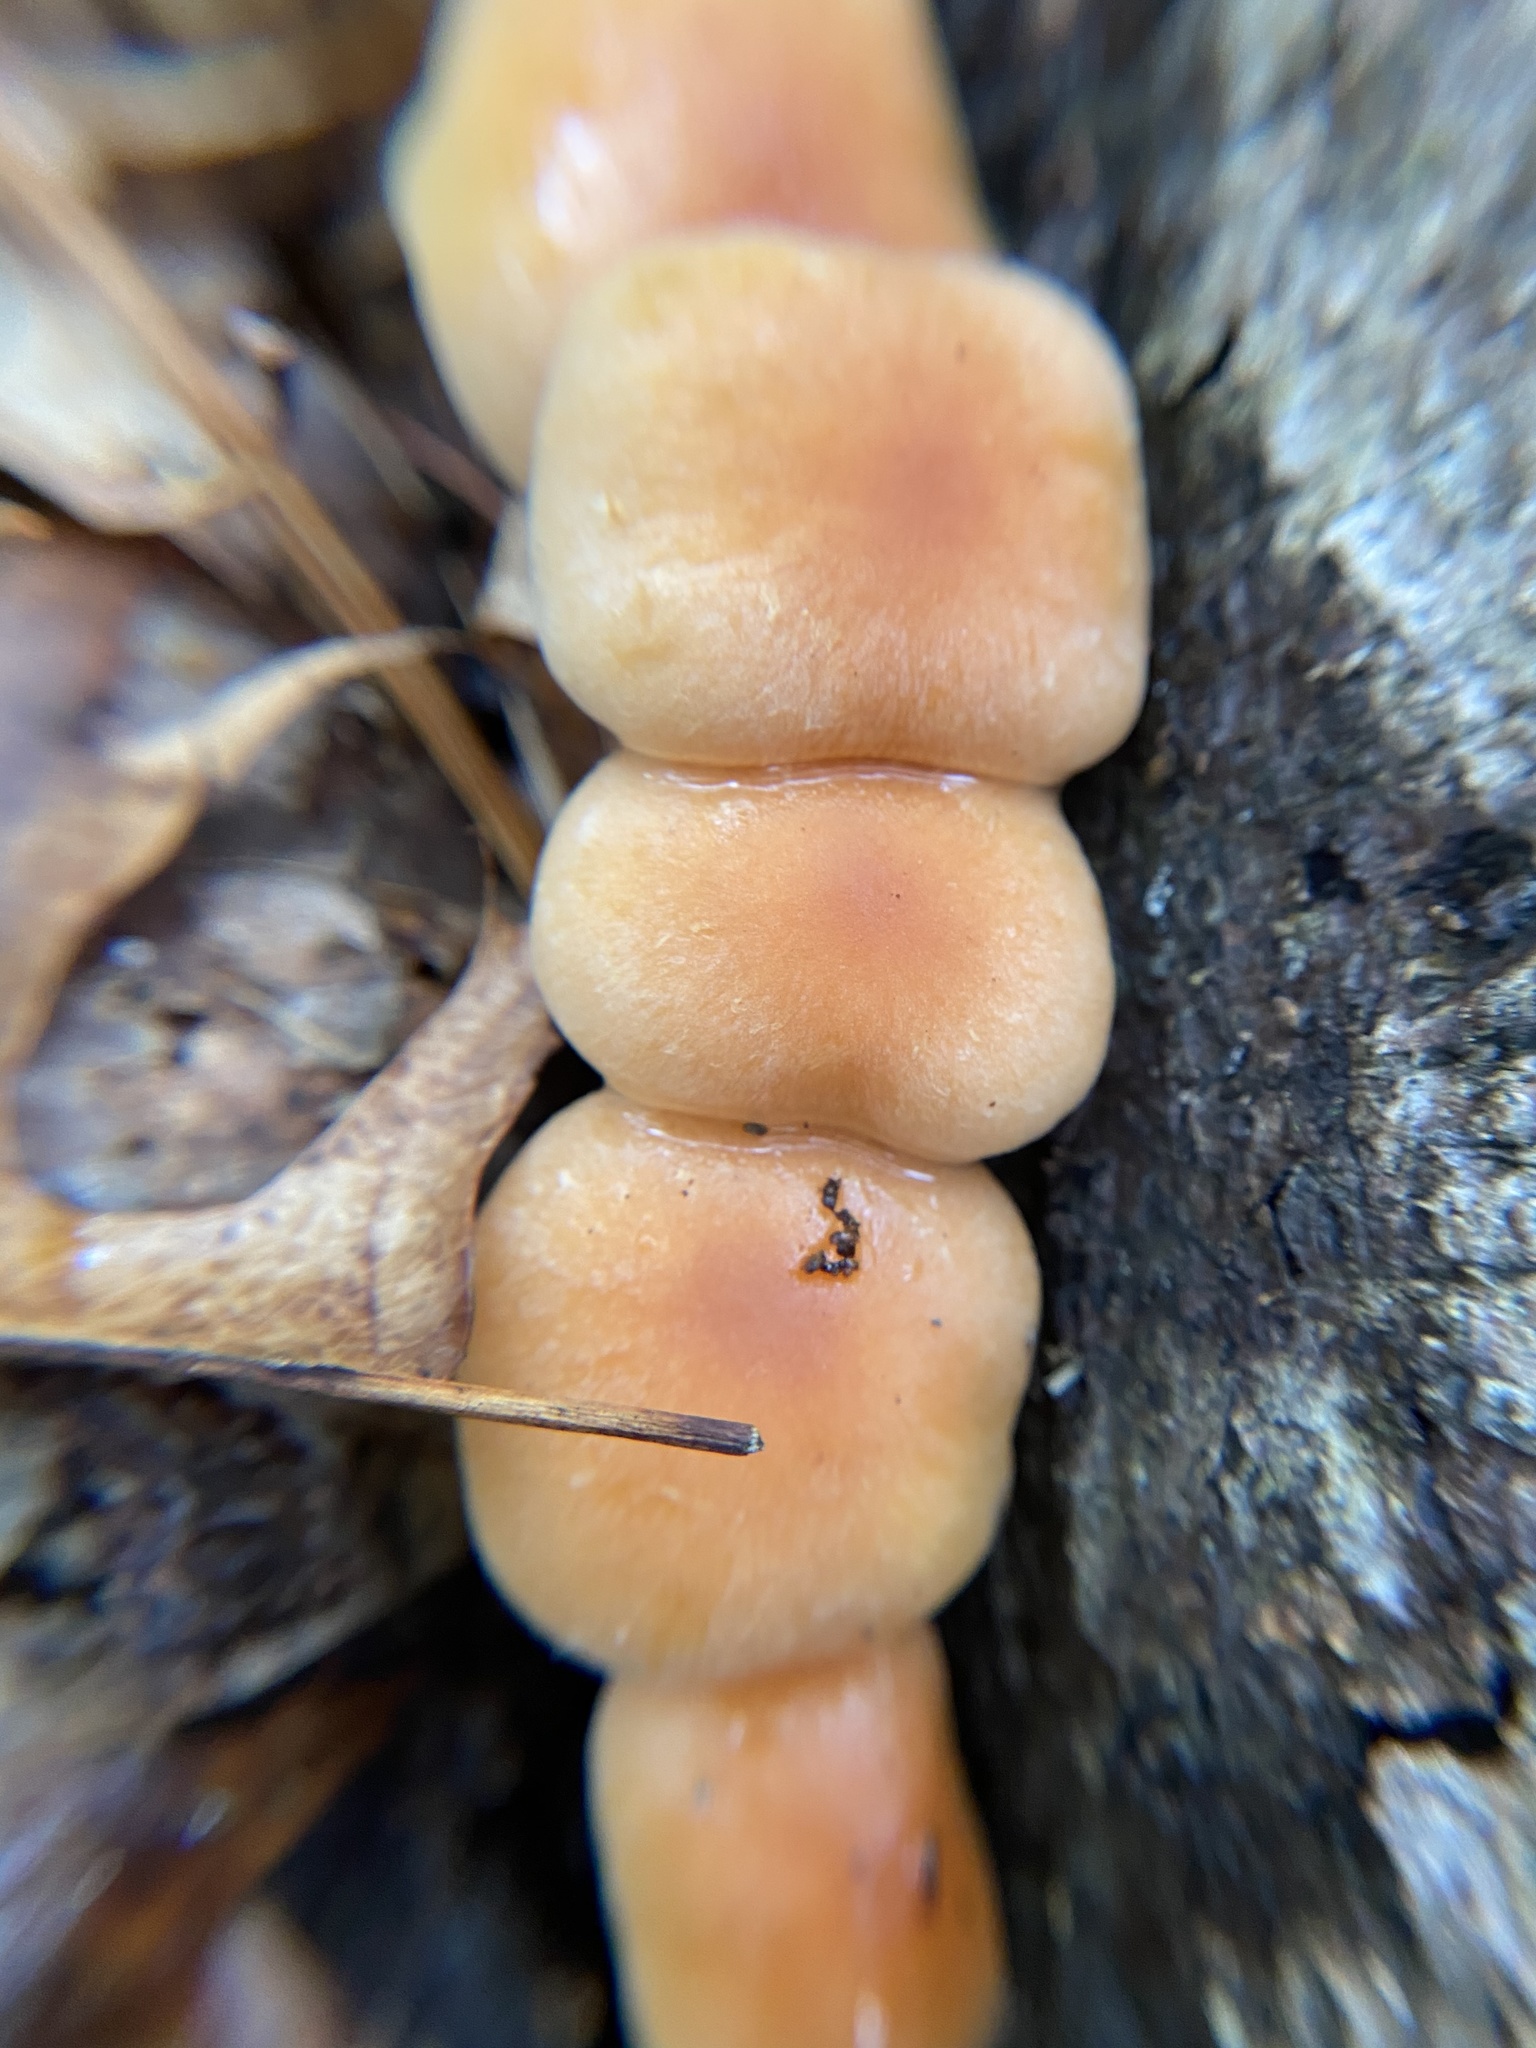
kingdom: Fungi
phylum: Basidiomycota
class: Agaricomycetes
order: Agaricales
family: Strophariaceae
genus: Hypholoma
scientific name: Hypholoma lateritium
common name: Brick caps
